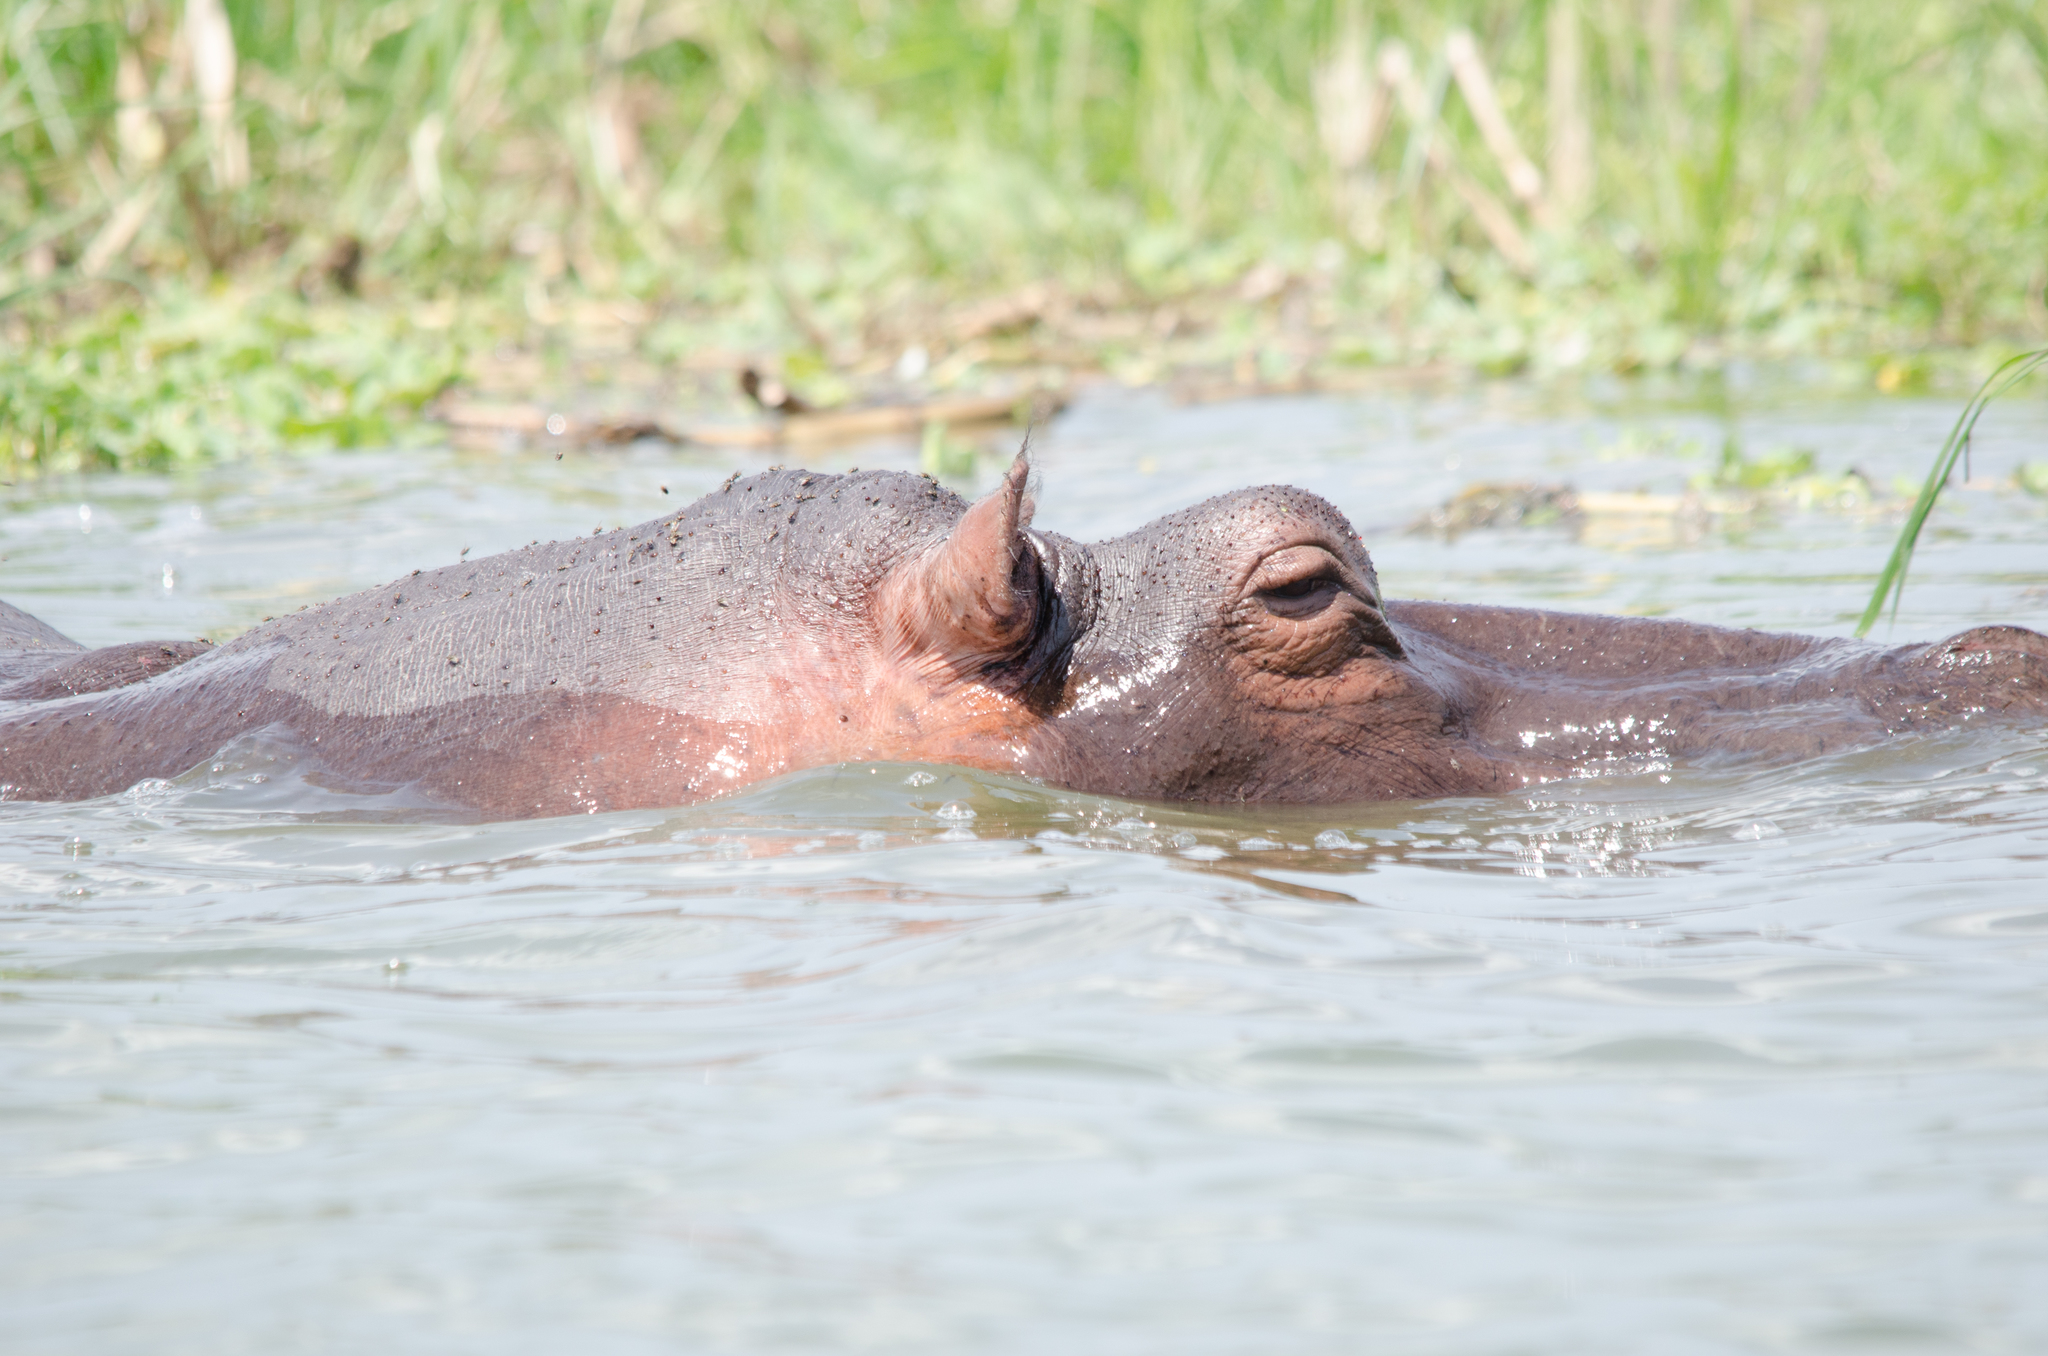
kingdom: Animalia
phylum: Chordata
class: Mammalia
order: Artiodactyla
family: Hippopotamidae
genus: Hippopotamus
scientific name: Hippopotamus amphibius
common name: Common hippopotamus
